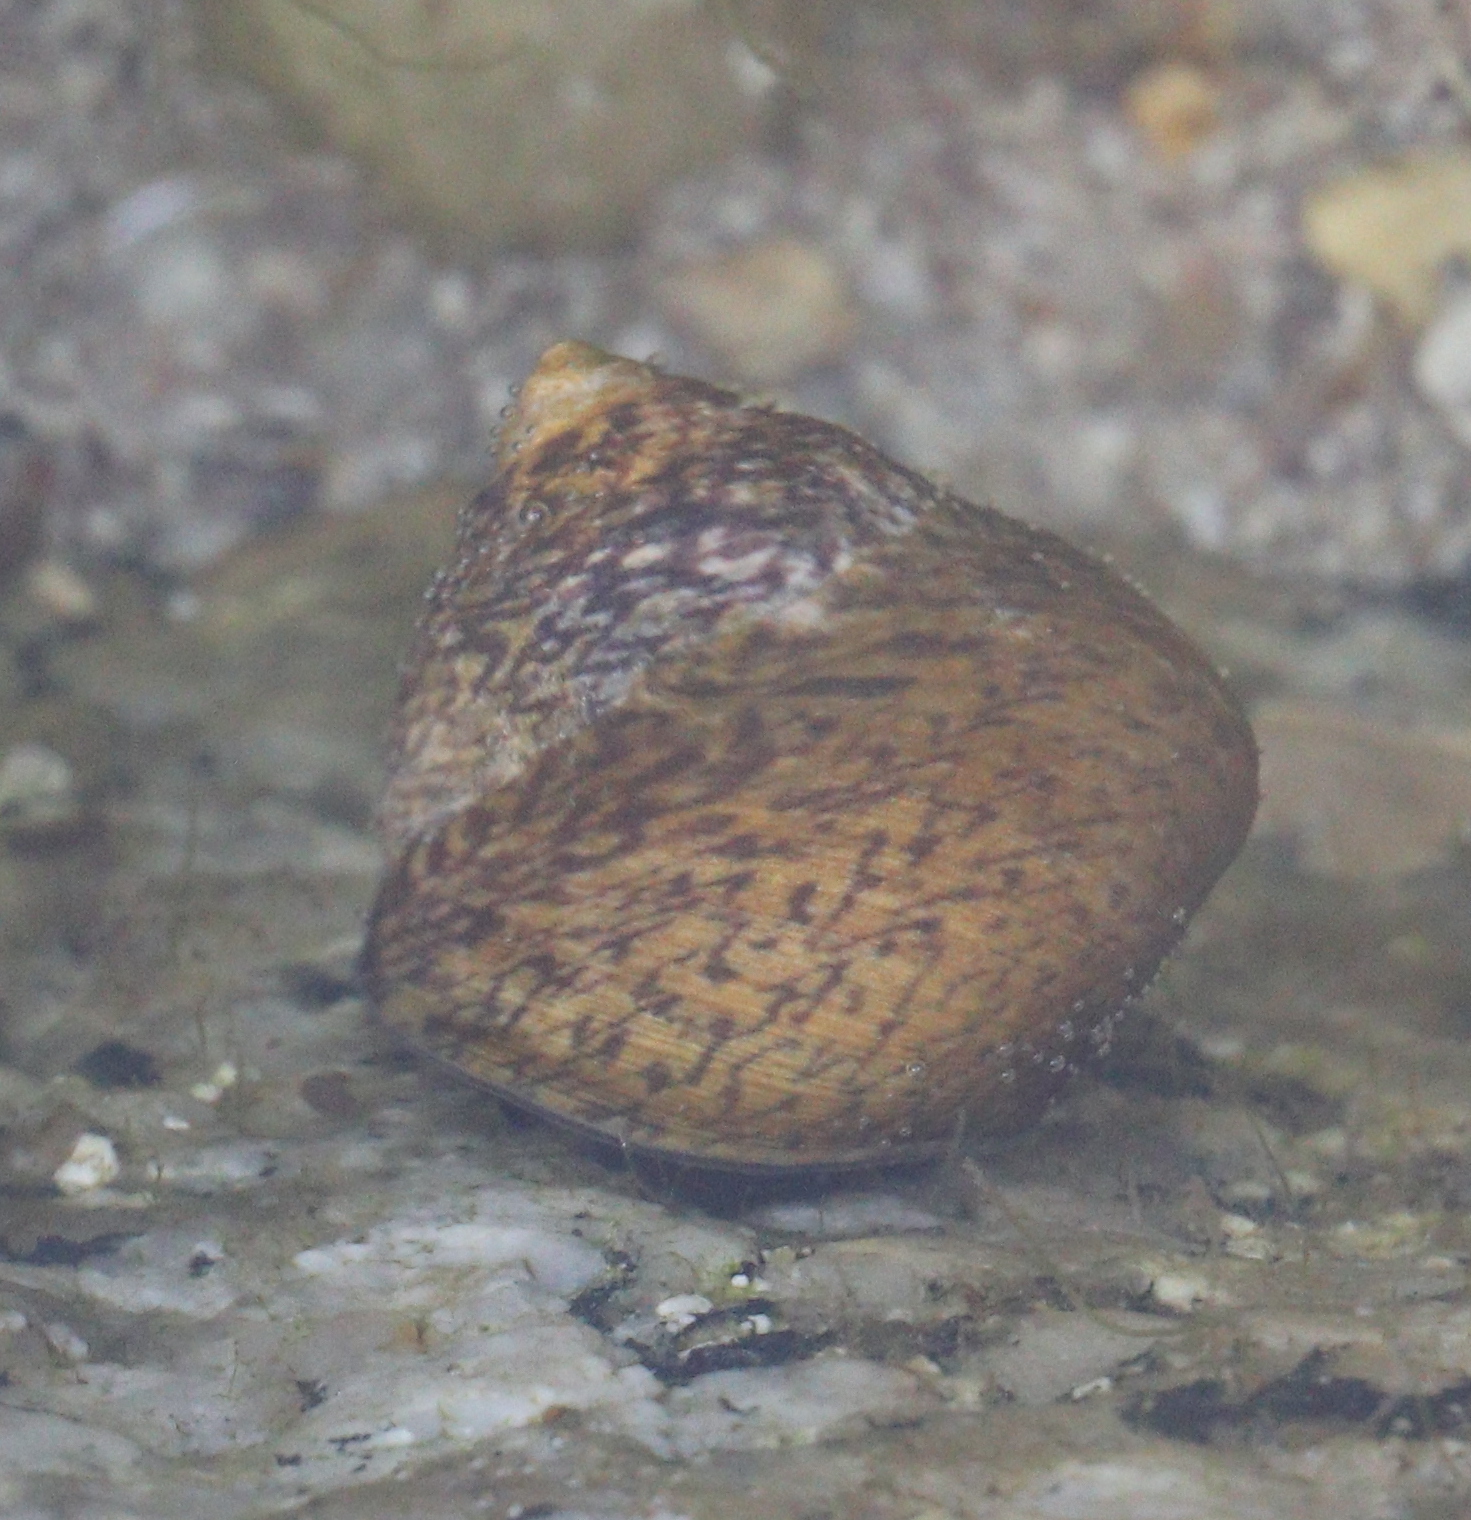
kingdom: Animalia
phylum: Mollusca
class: Gastropoda
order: Trochida
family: Trochidae
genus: Phorcus
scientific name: Phorcus lineatus
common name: Toothed top shell
